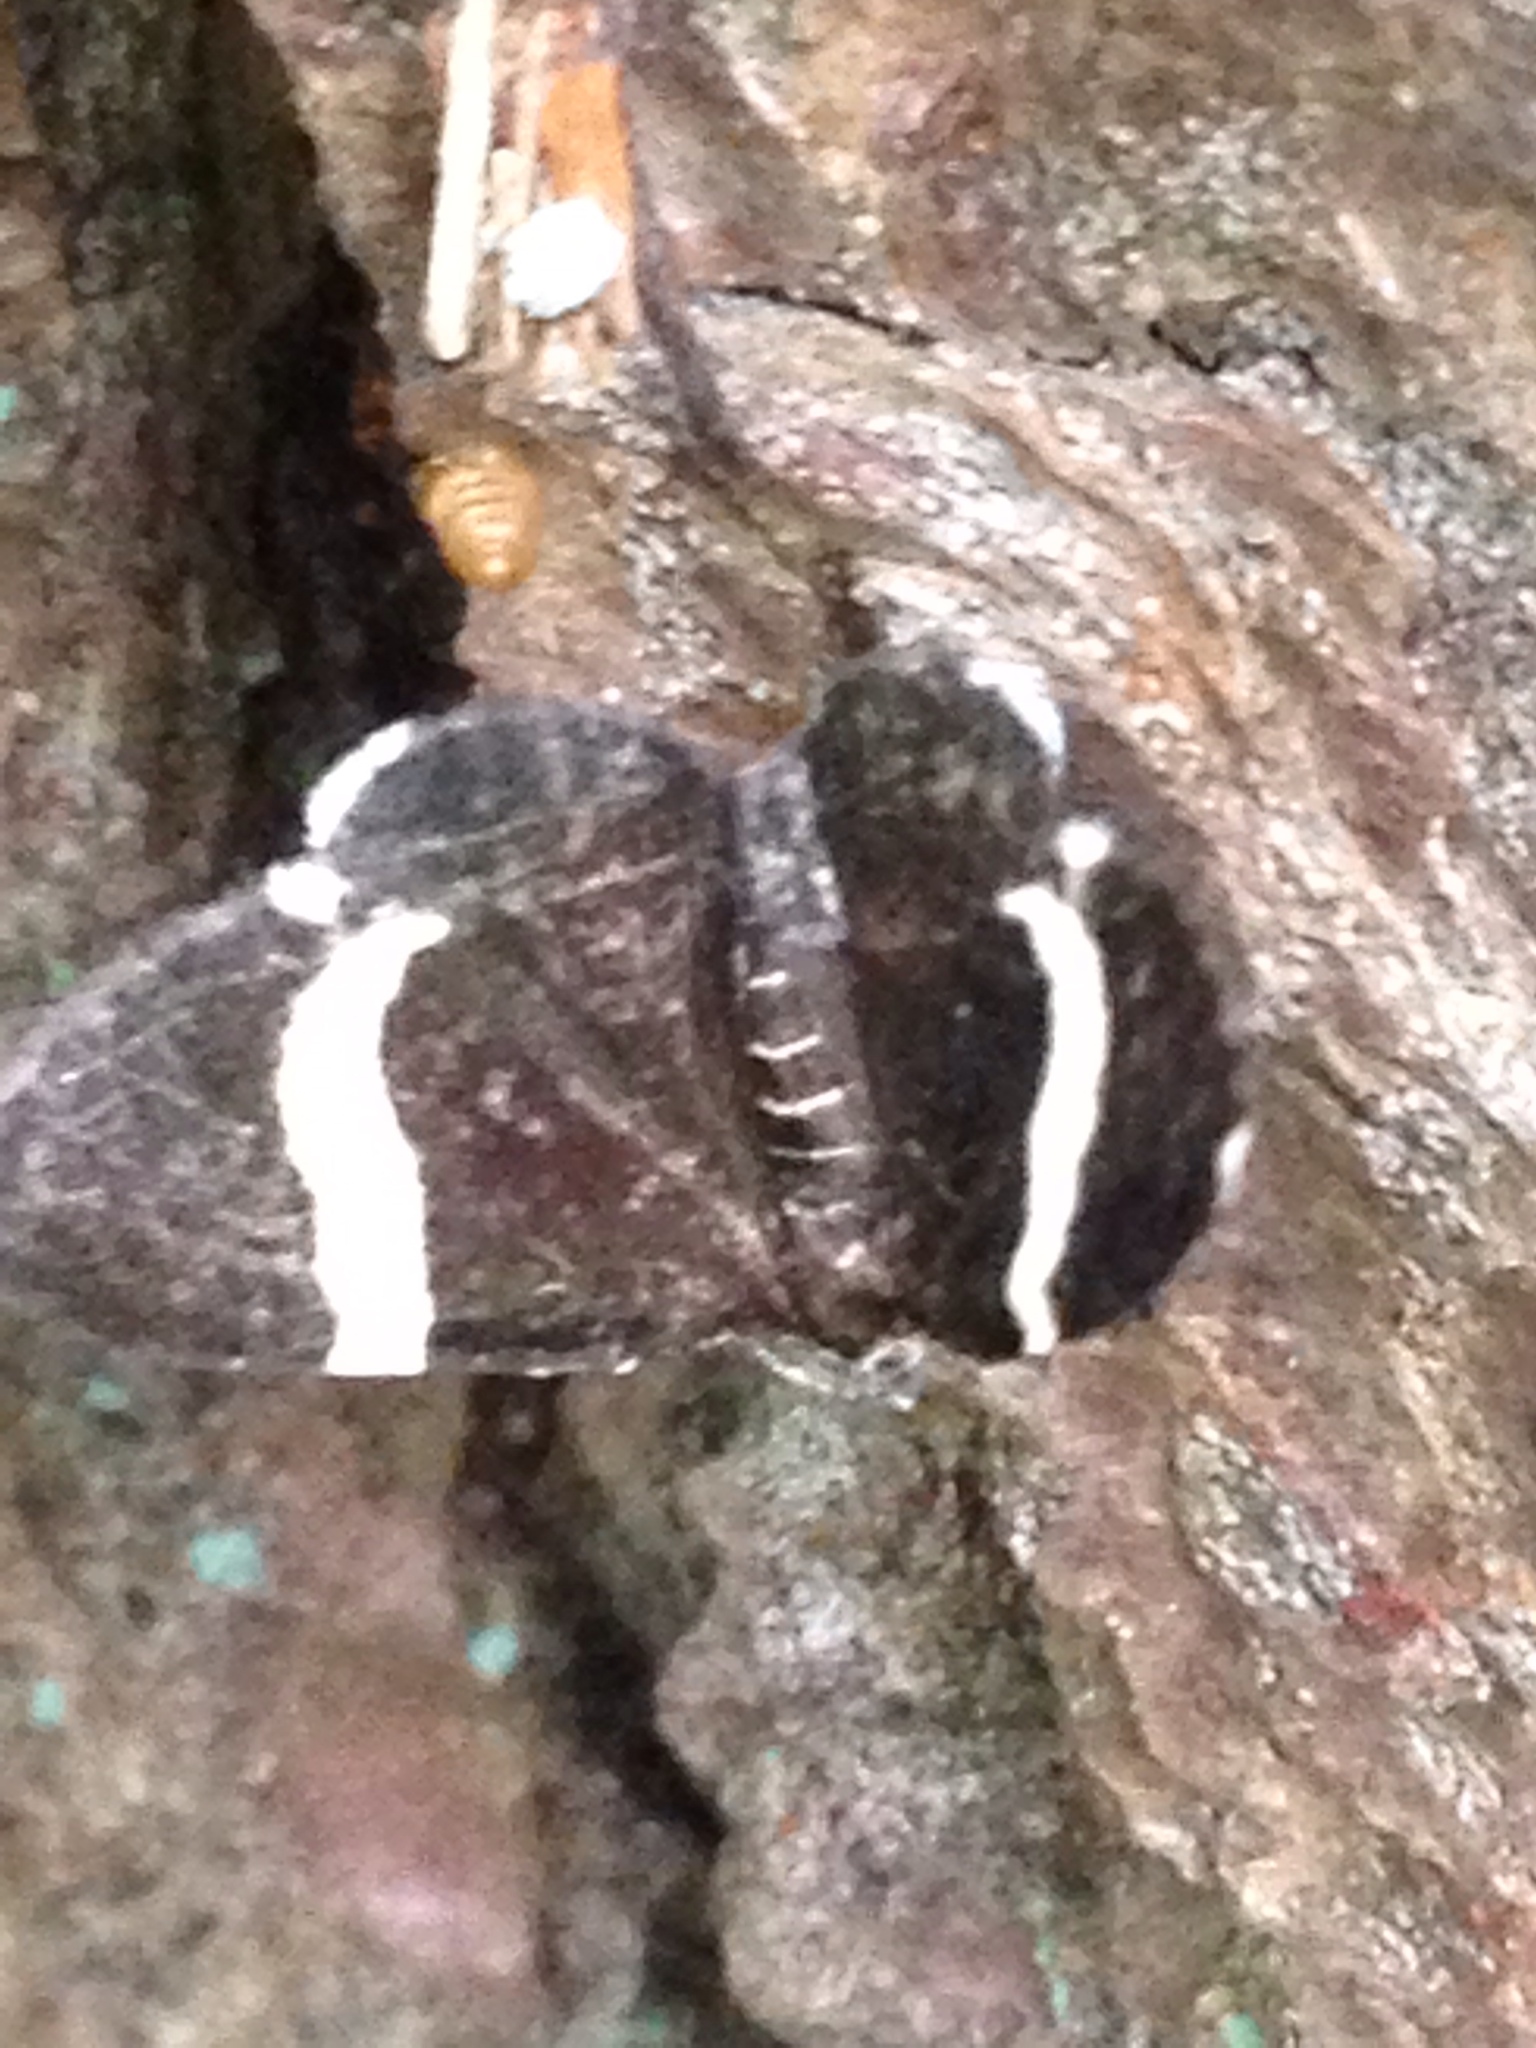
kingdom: Animalia
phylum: Arthropoda
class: Insecta
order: Lepidoptera
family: Geometridae
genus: Trichodezia
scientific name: Trichodezia albovittata
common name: White striped black
